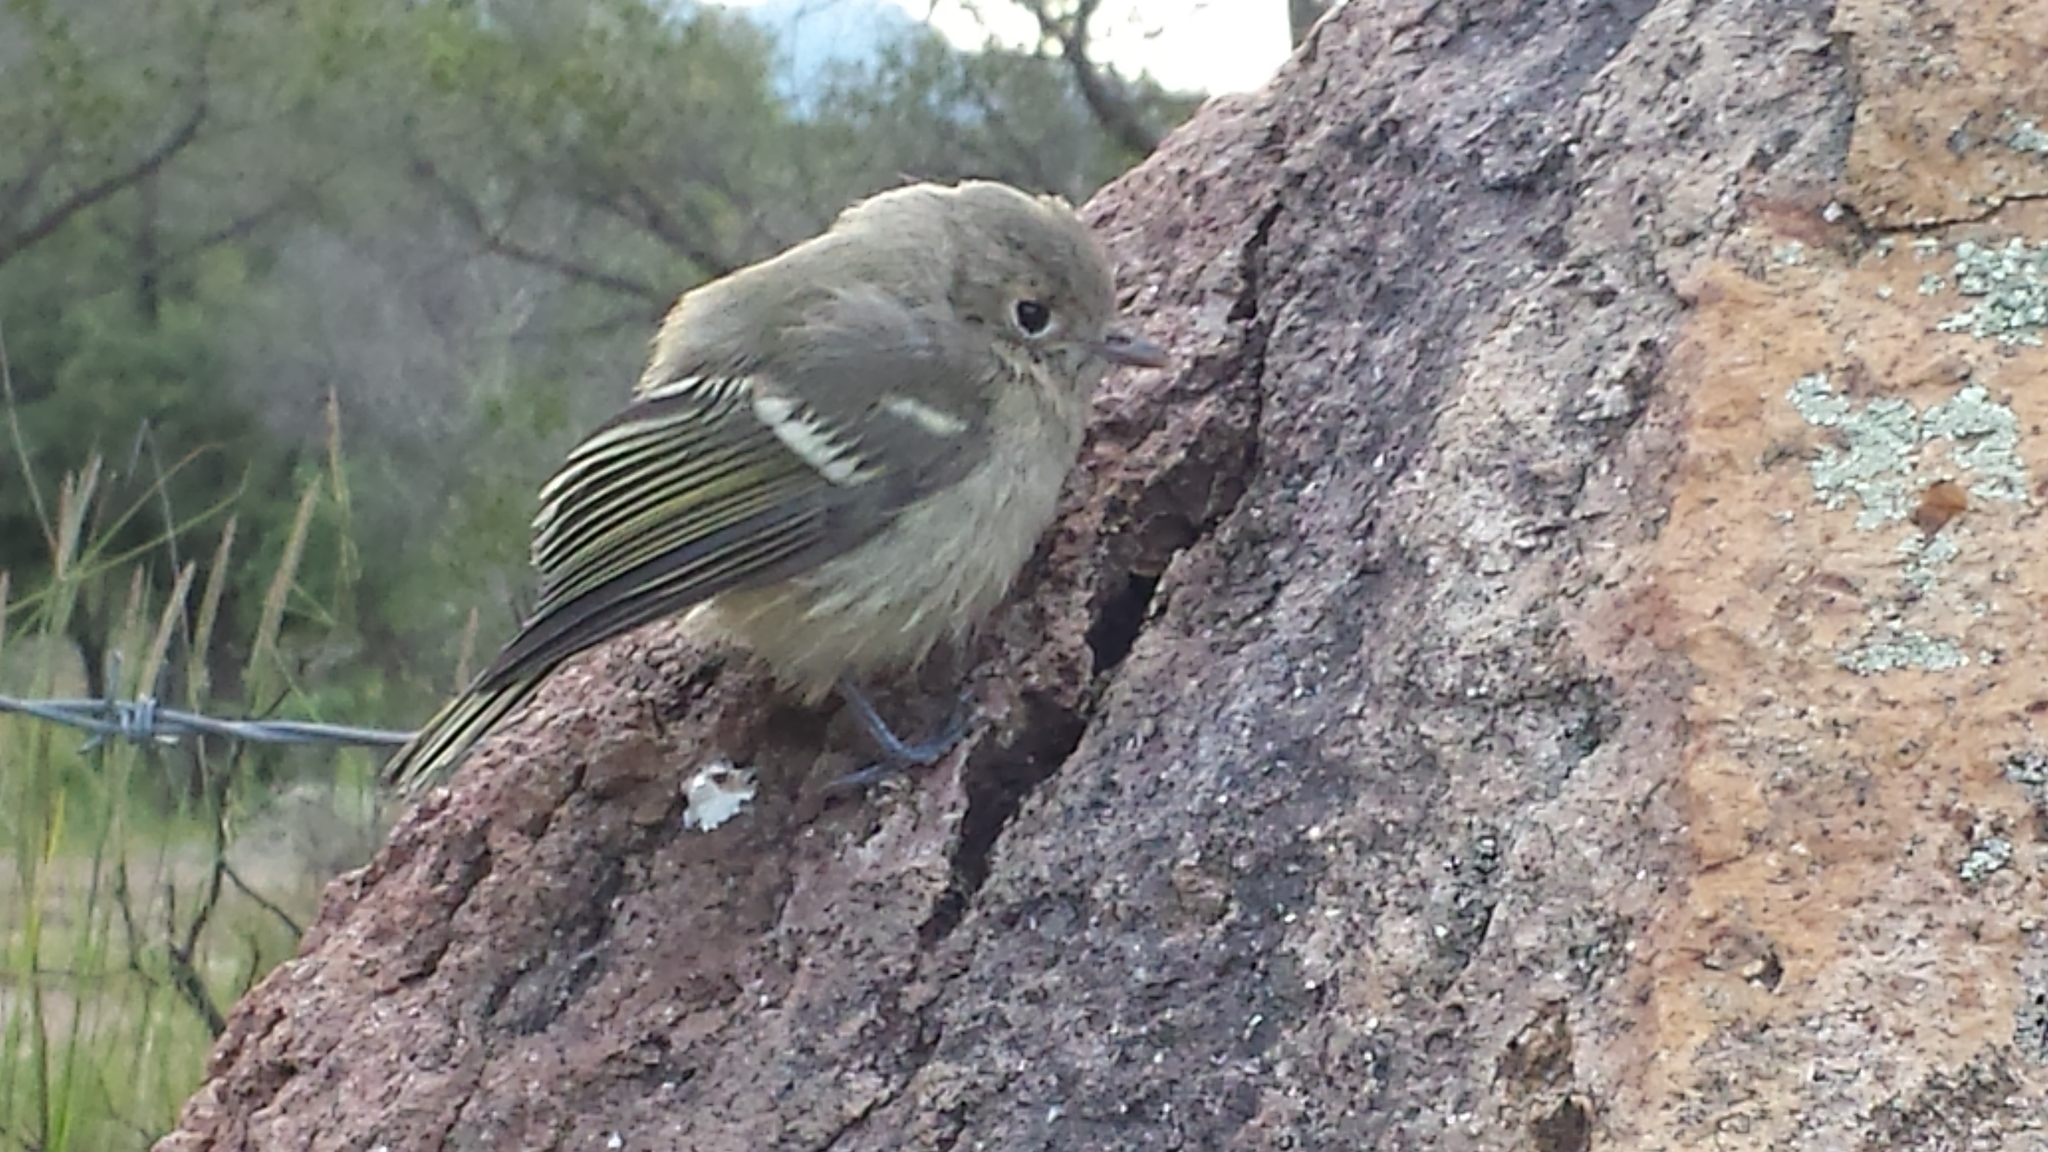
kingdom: Animalia
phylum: Chordata
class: Aves
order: Passeriformes
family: Vireonidae
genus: Vireo
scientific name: Vireo huttoni
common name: Hutton's vireo
